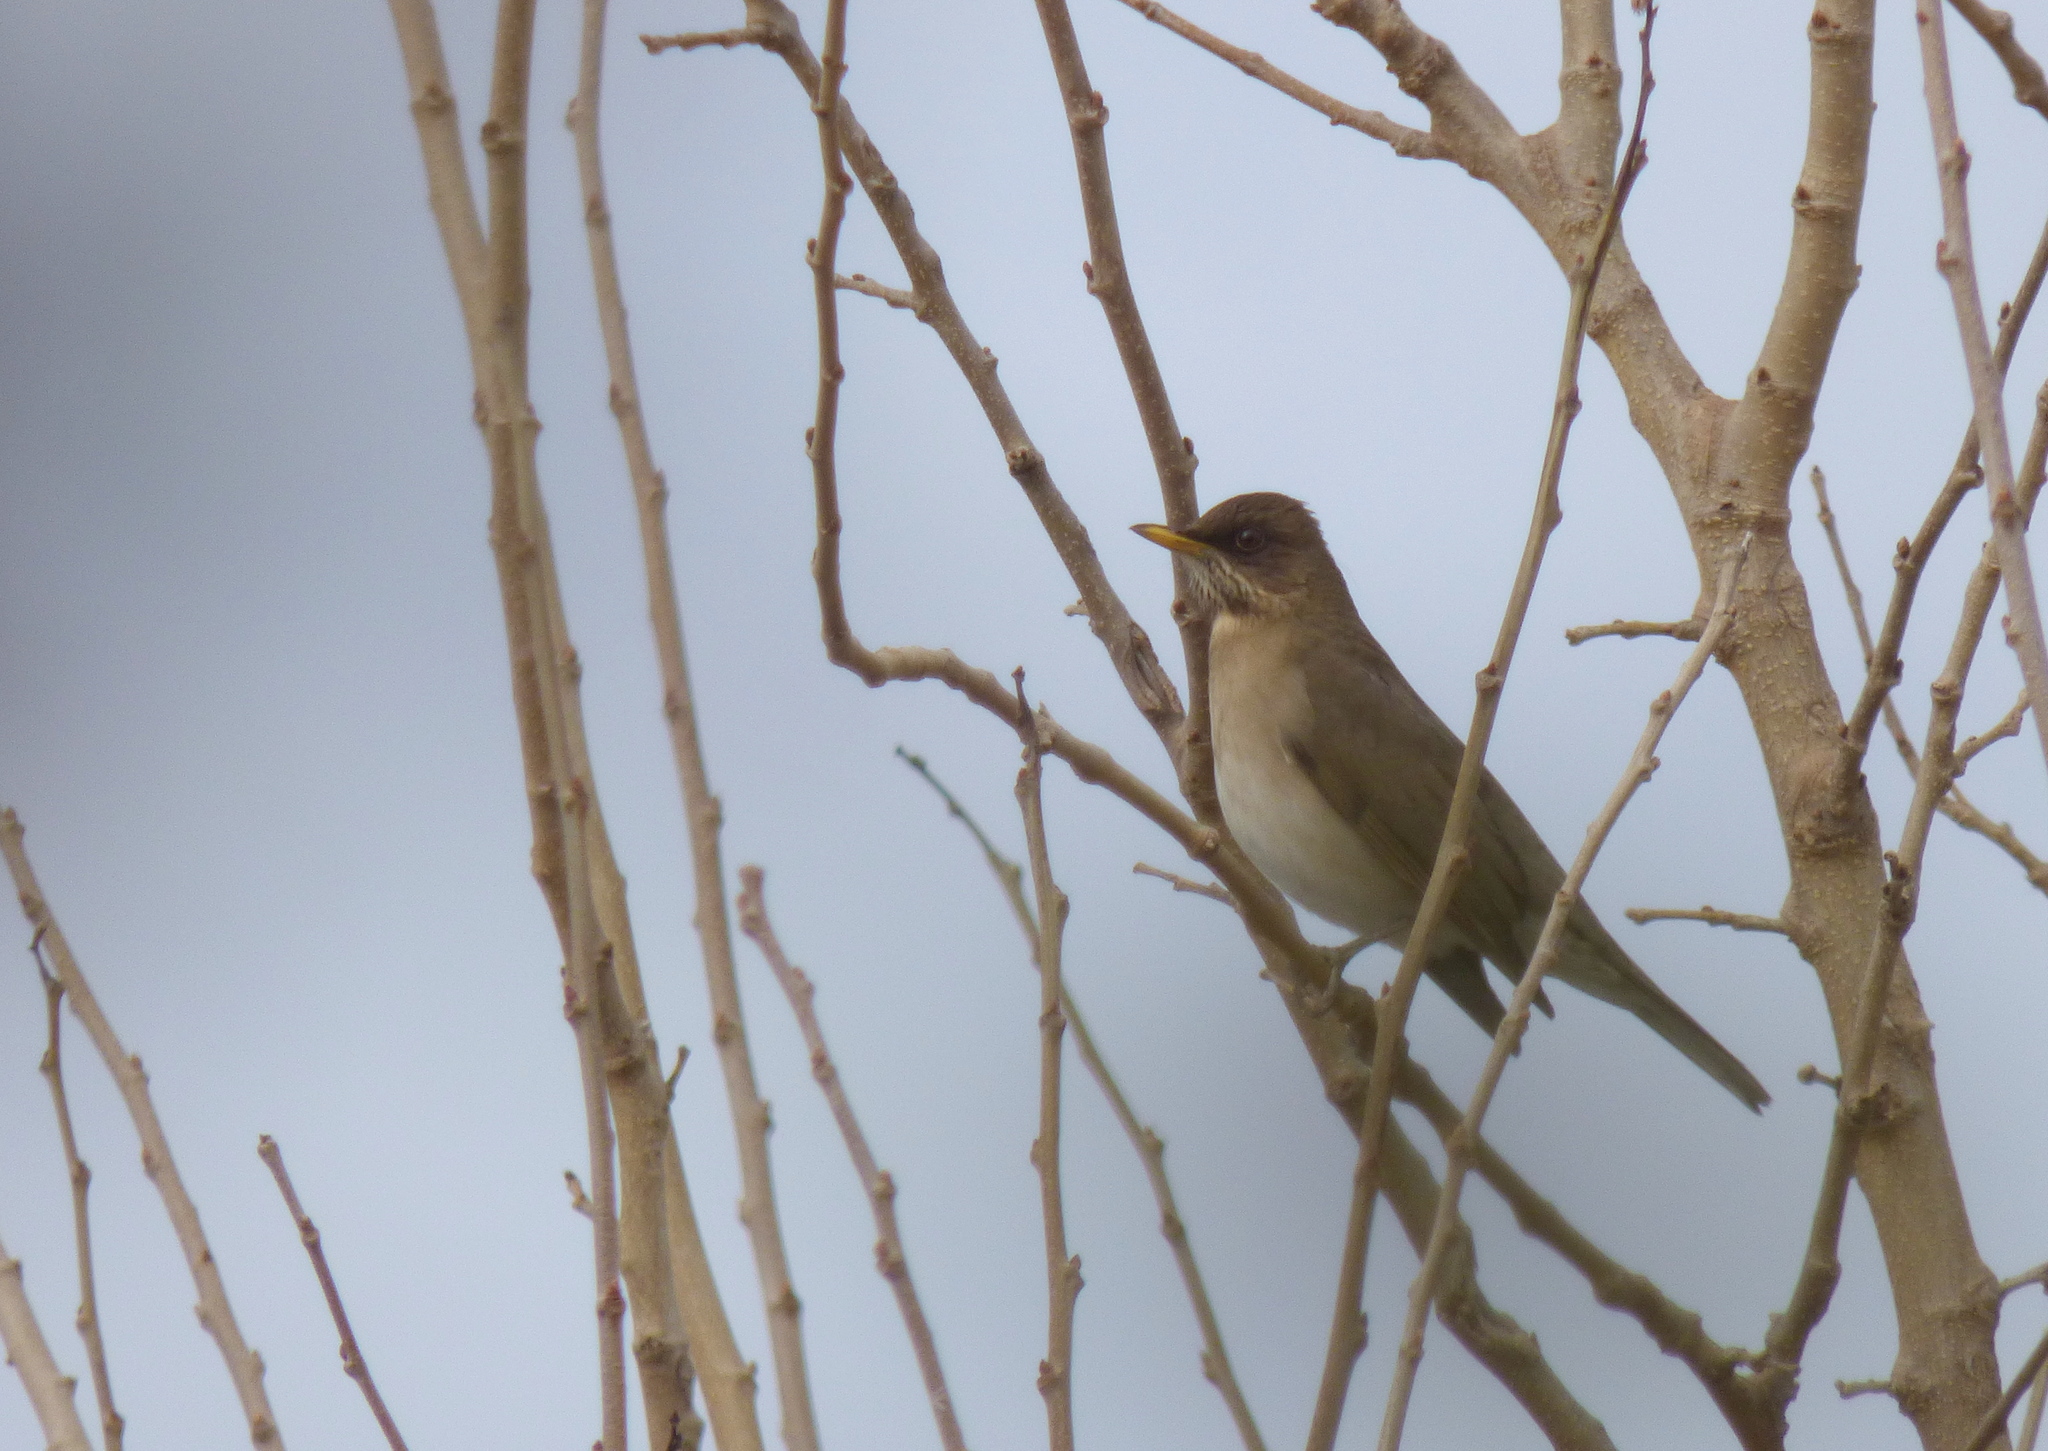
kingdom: Animalia
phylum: Chordata
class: Aves
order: Passeriformes
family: Turdidae
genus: Turdus
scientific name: Turdus amaurochalinus
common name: Creamy-bellied thrush
